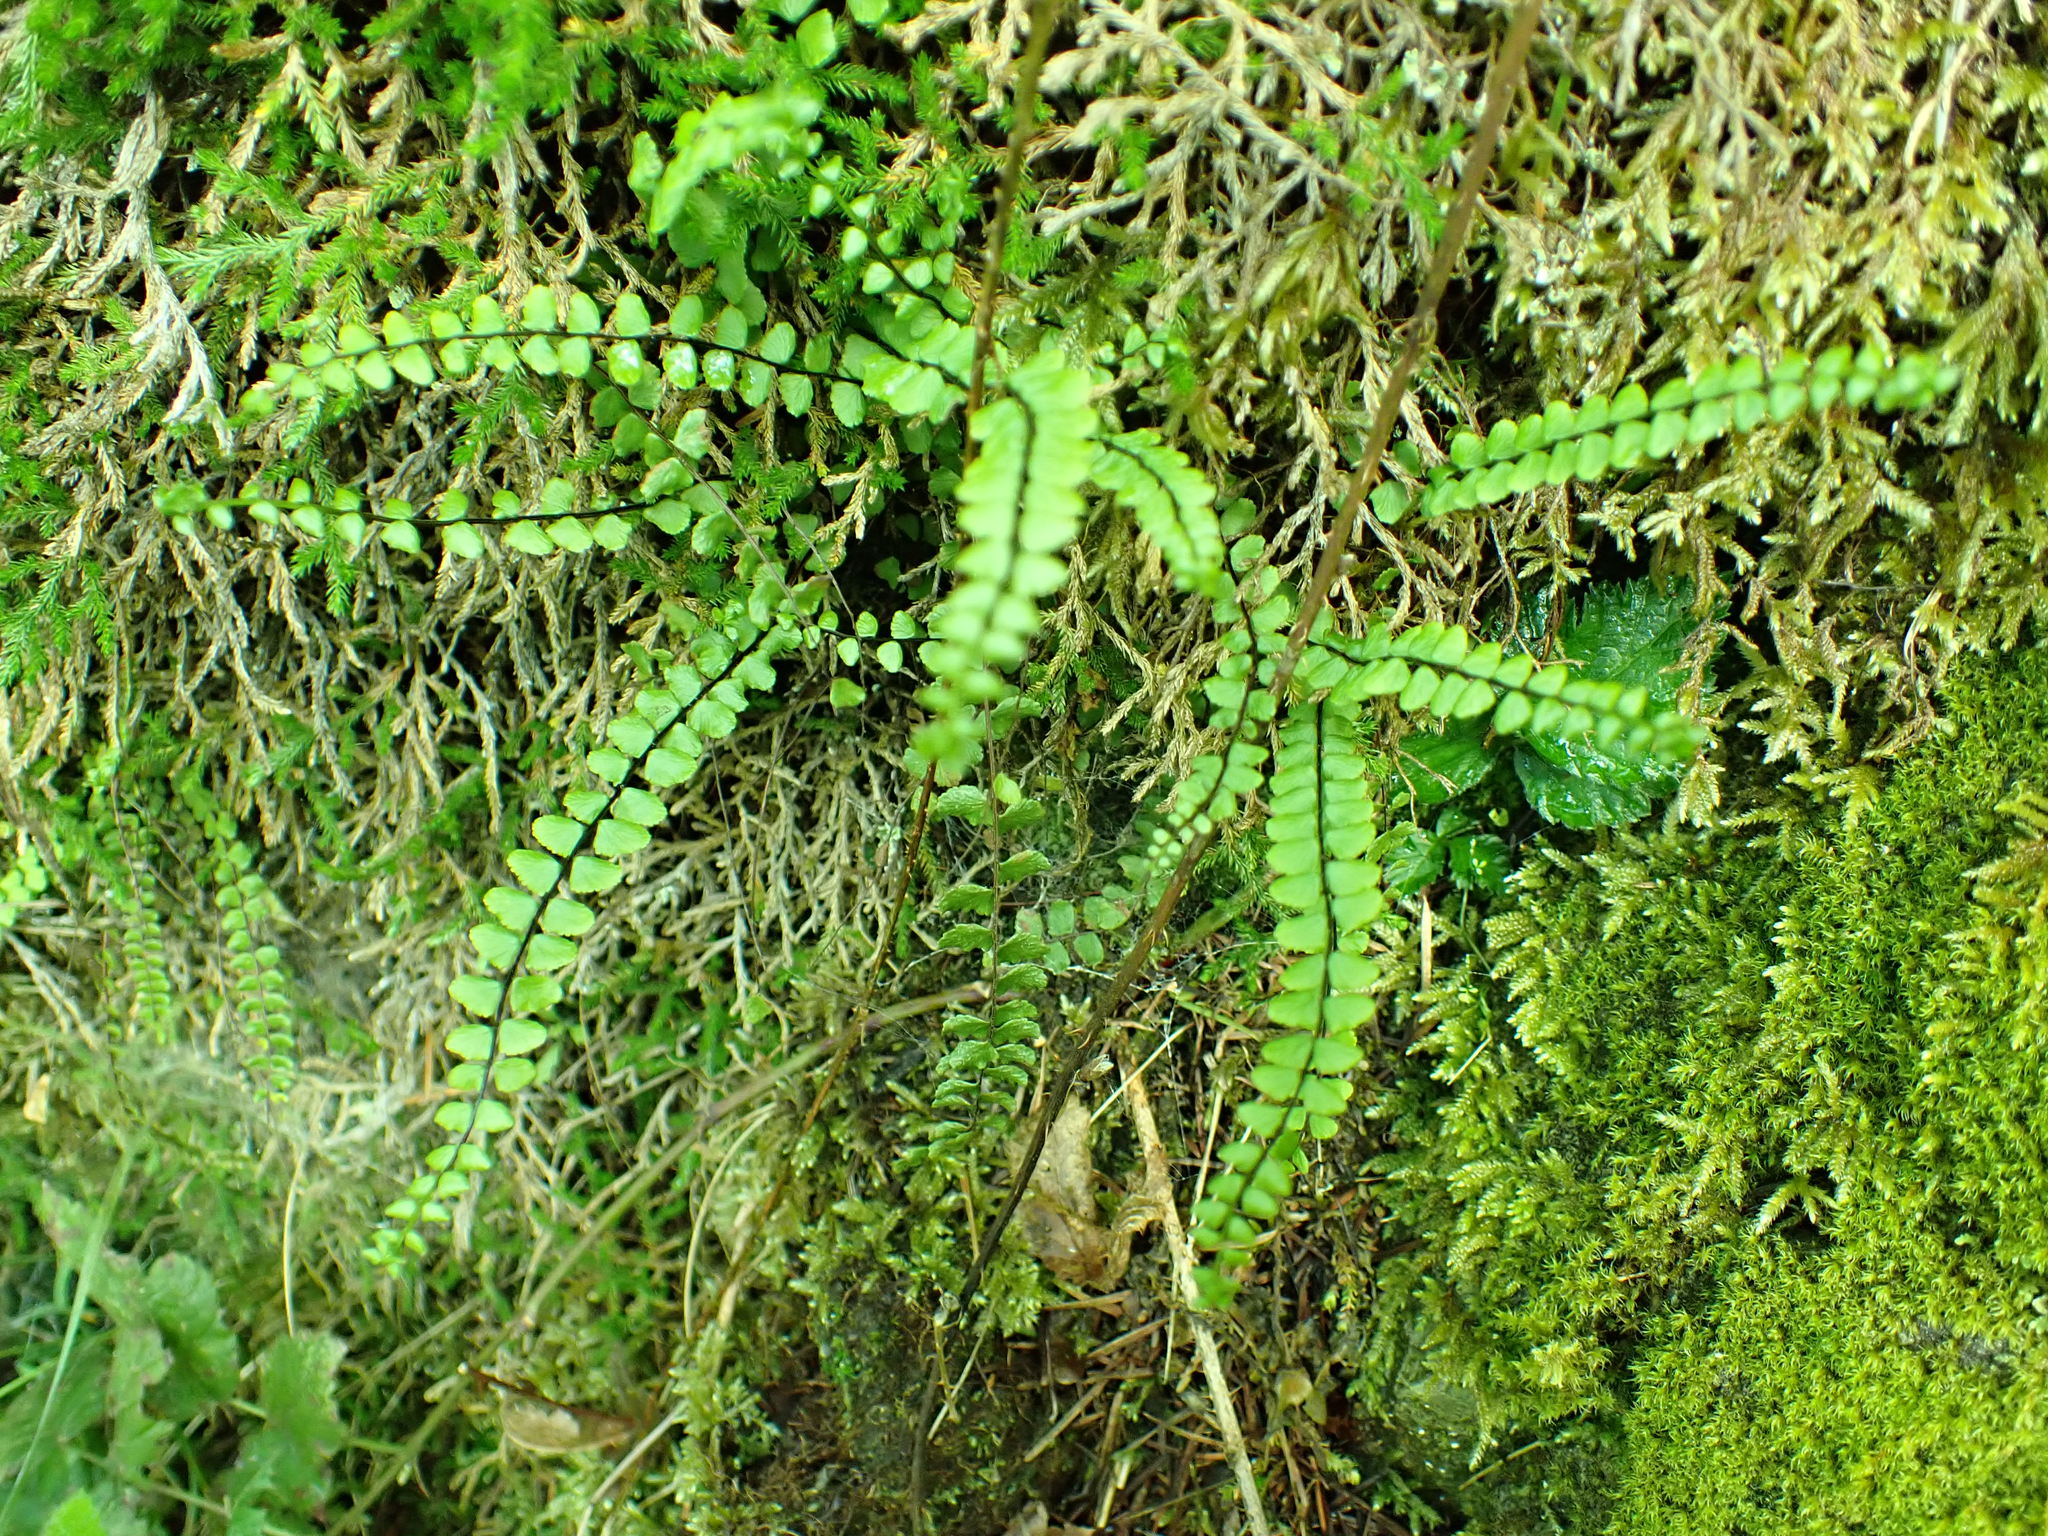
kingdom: Plantae
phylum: Tracheophyta
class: Polypodiopsida
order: Polypodiales
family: Aspleniaceae
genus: Asplenium
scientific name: Asplenium trichomanes
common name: Maidenhair spleenwort
